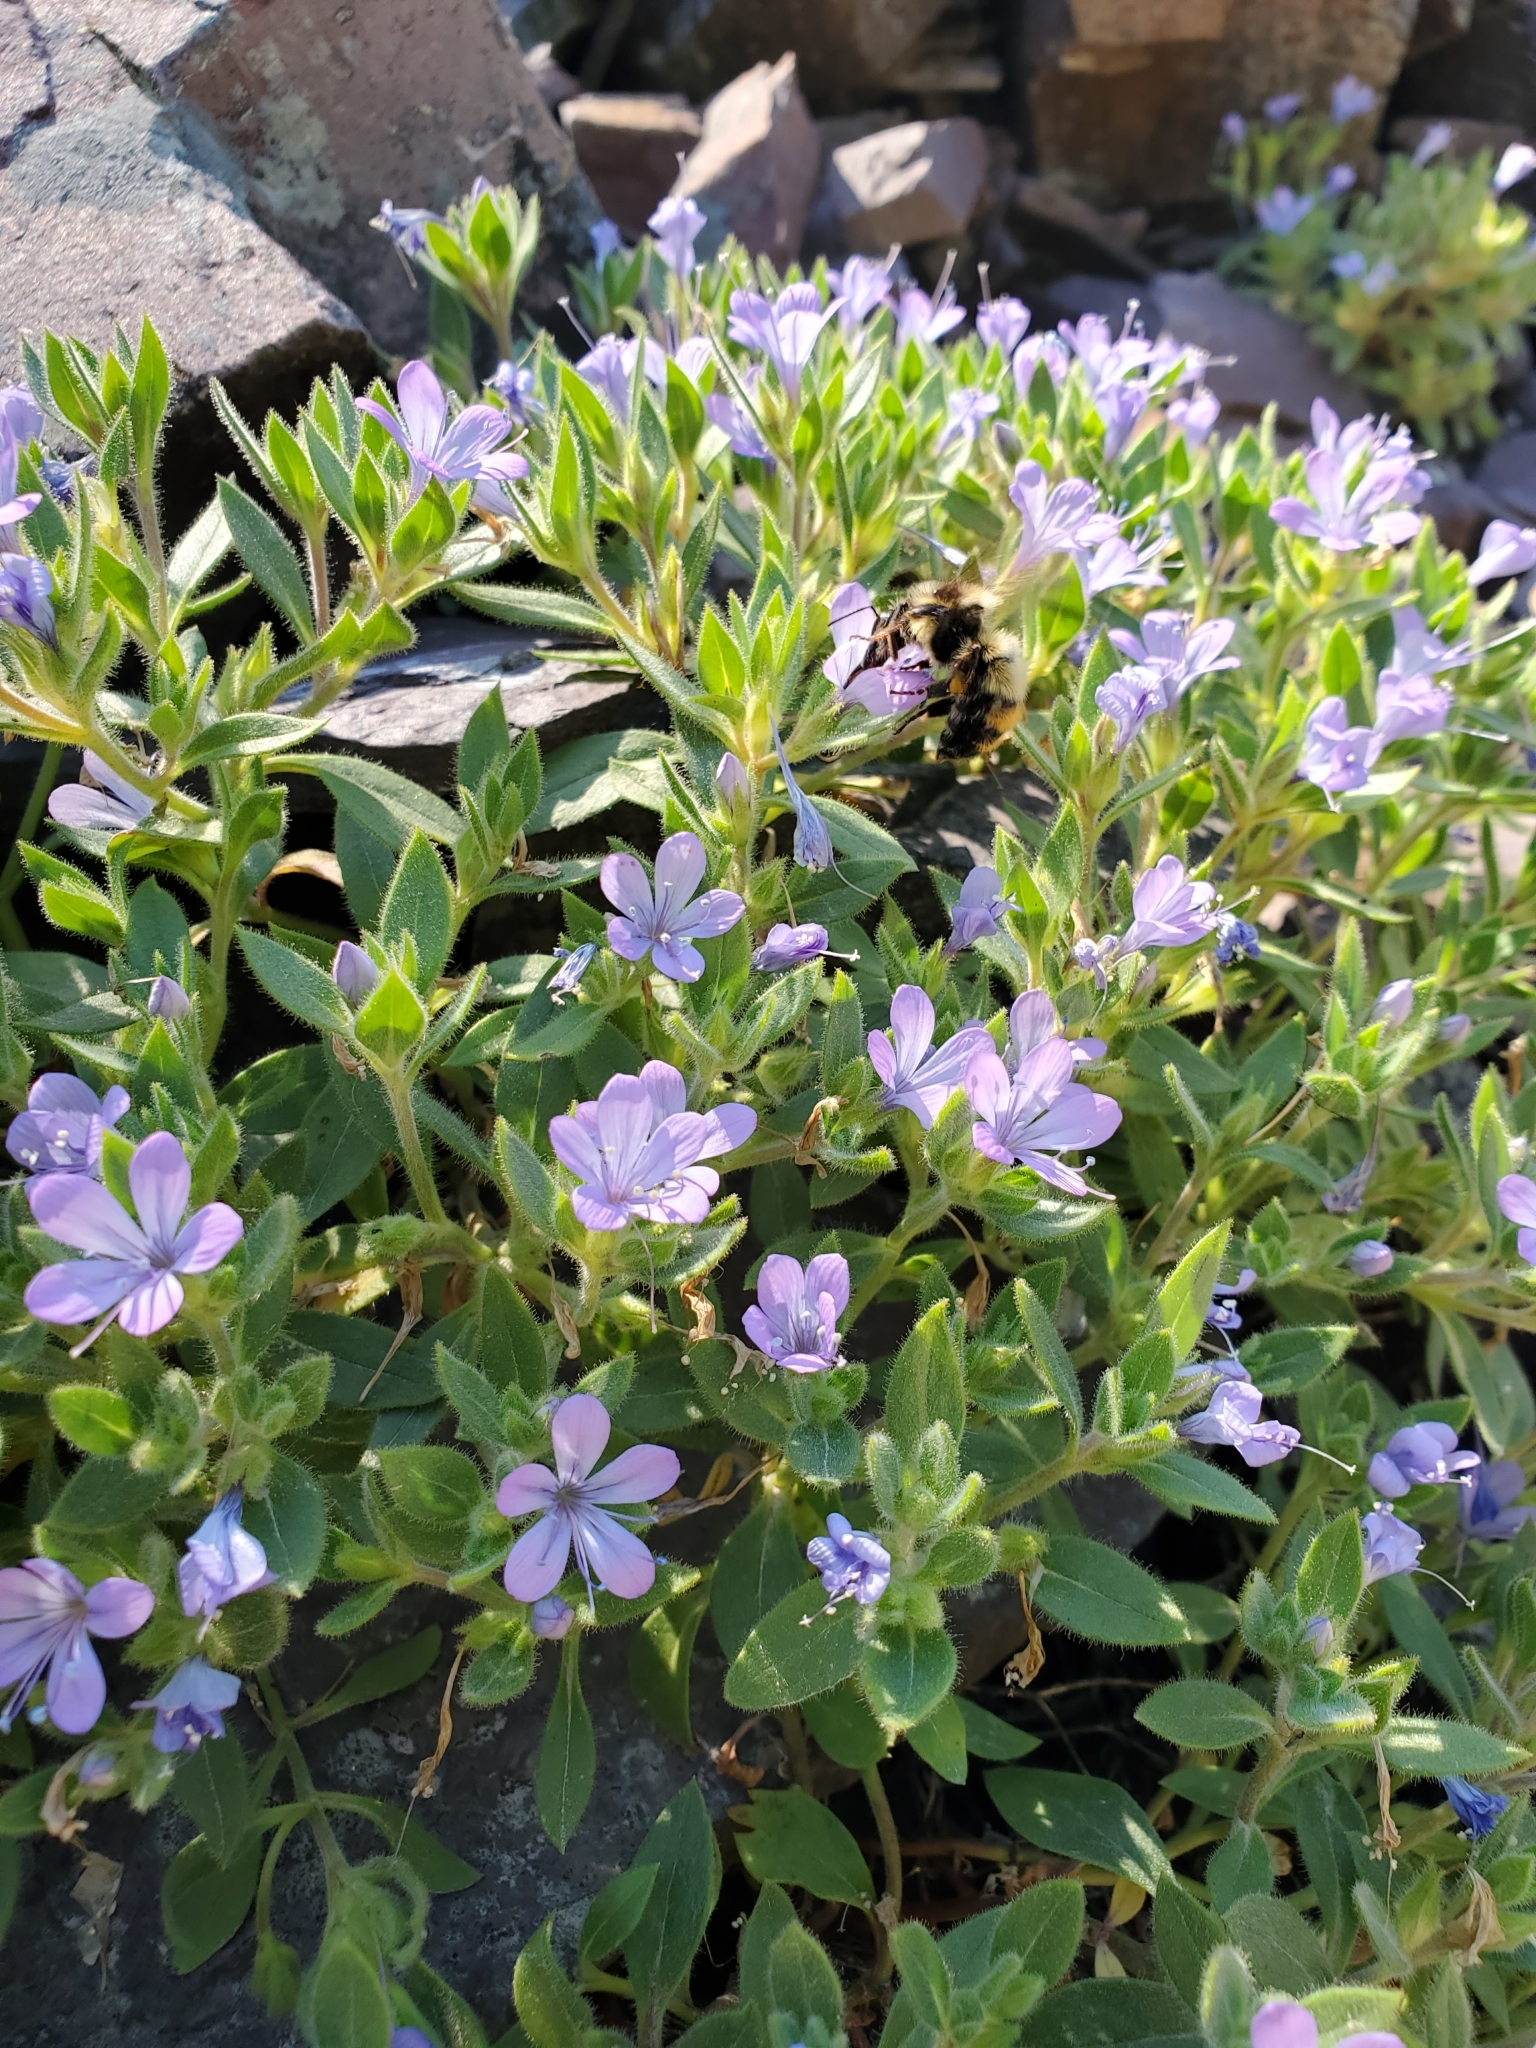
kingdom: Plantae
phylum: Tracheophyta
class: Magnoliopsida
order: Ericales
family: Polemoniaceae
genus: Collomia
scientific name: Collomia debilis
